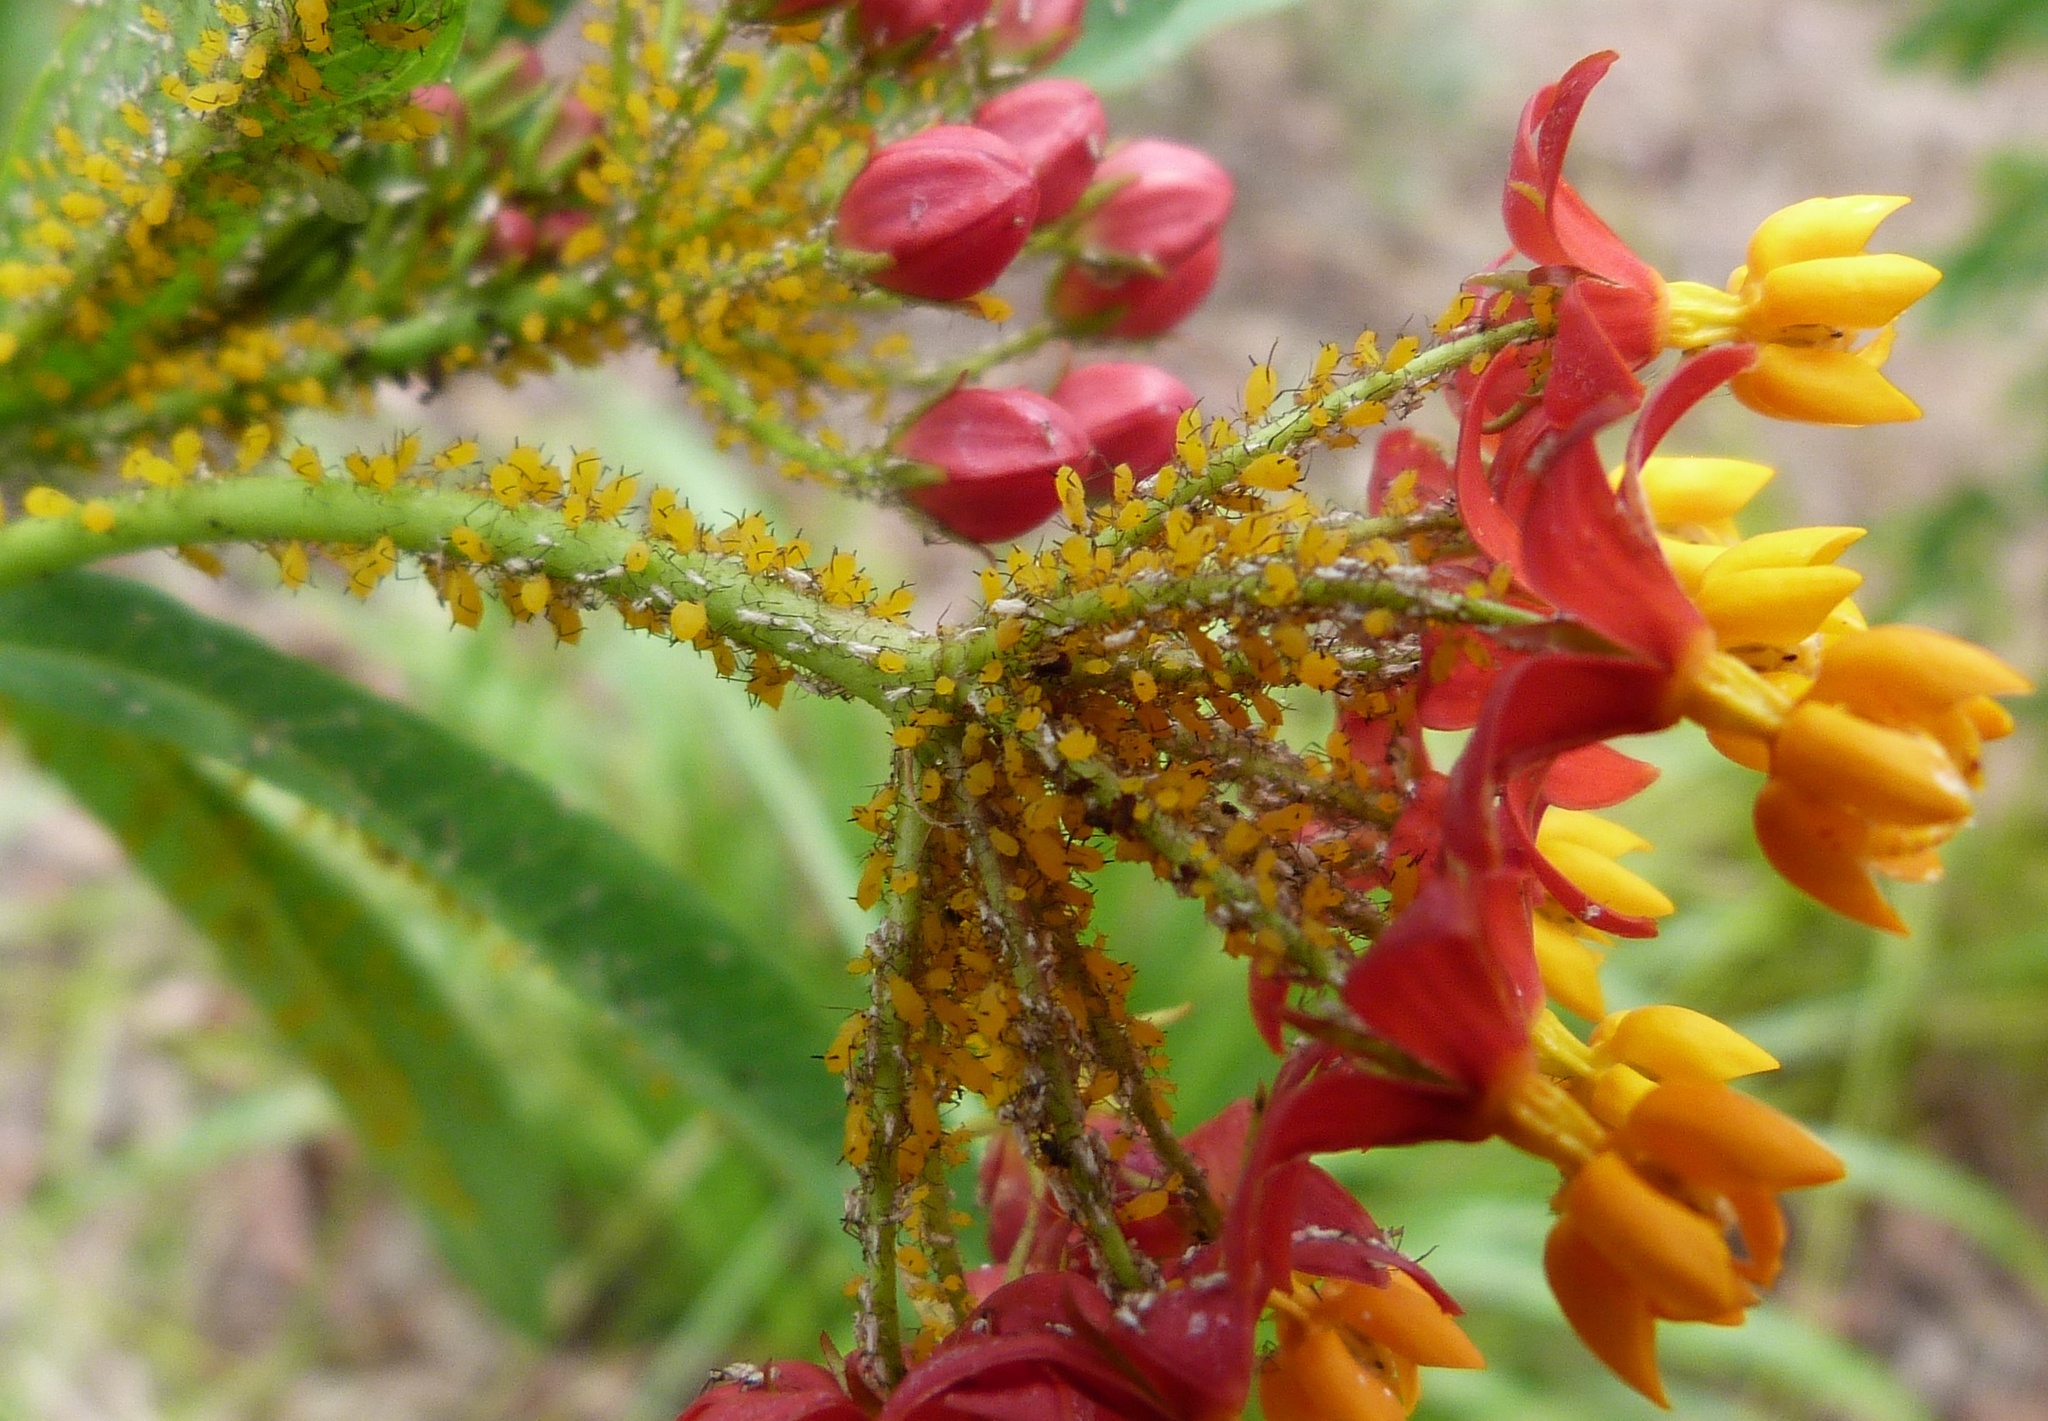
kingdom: Plantae
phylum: Tracheophyta
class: Magnoliopsida
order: Gentianales
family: Apocynaceae
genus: Asclepias
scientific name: Asclepias curassavica
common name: Bloodflower
